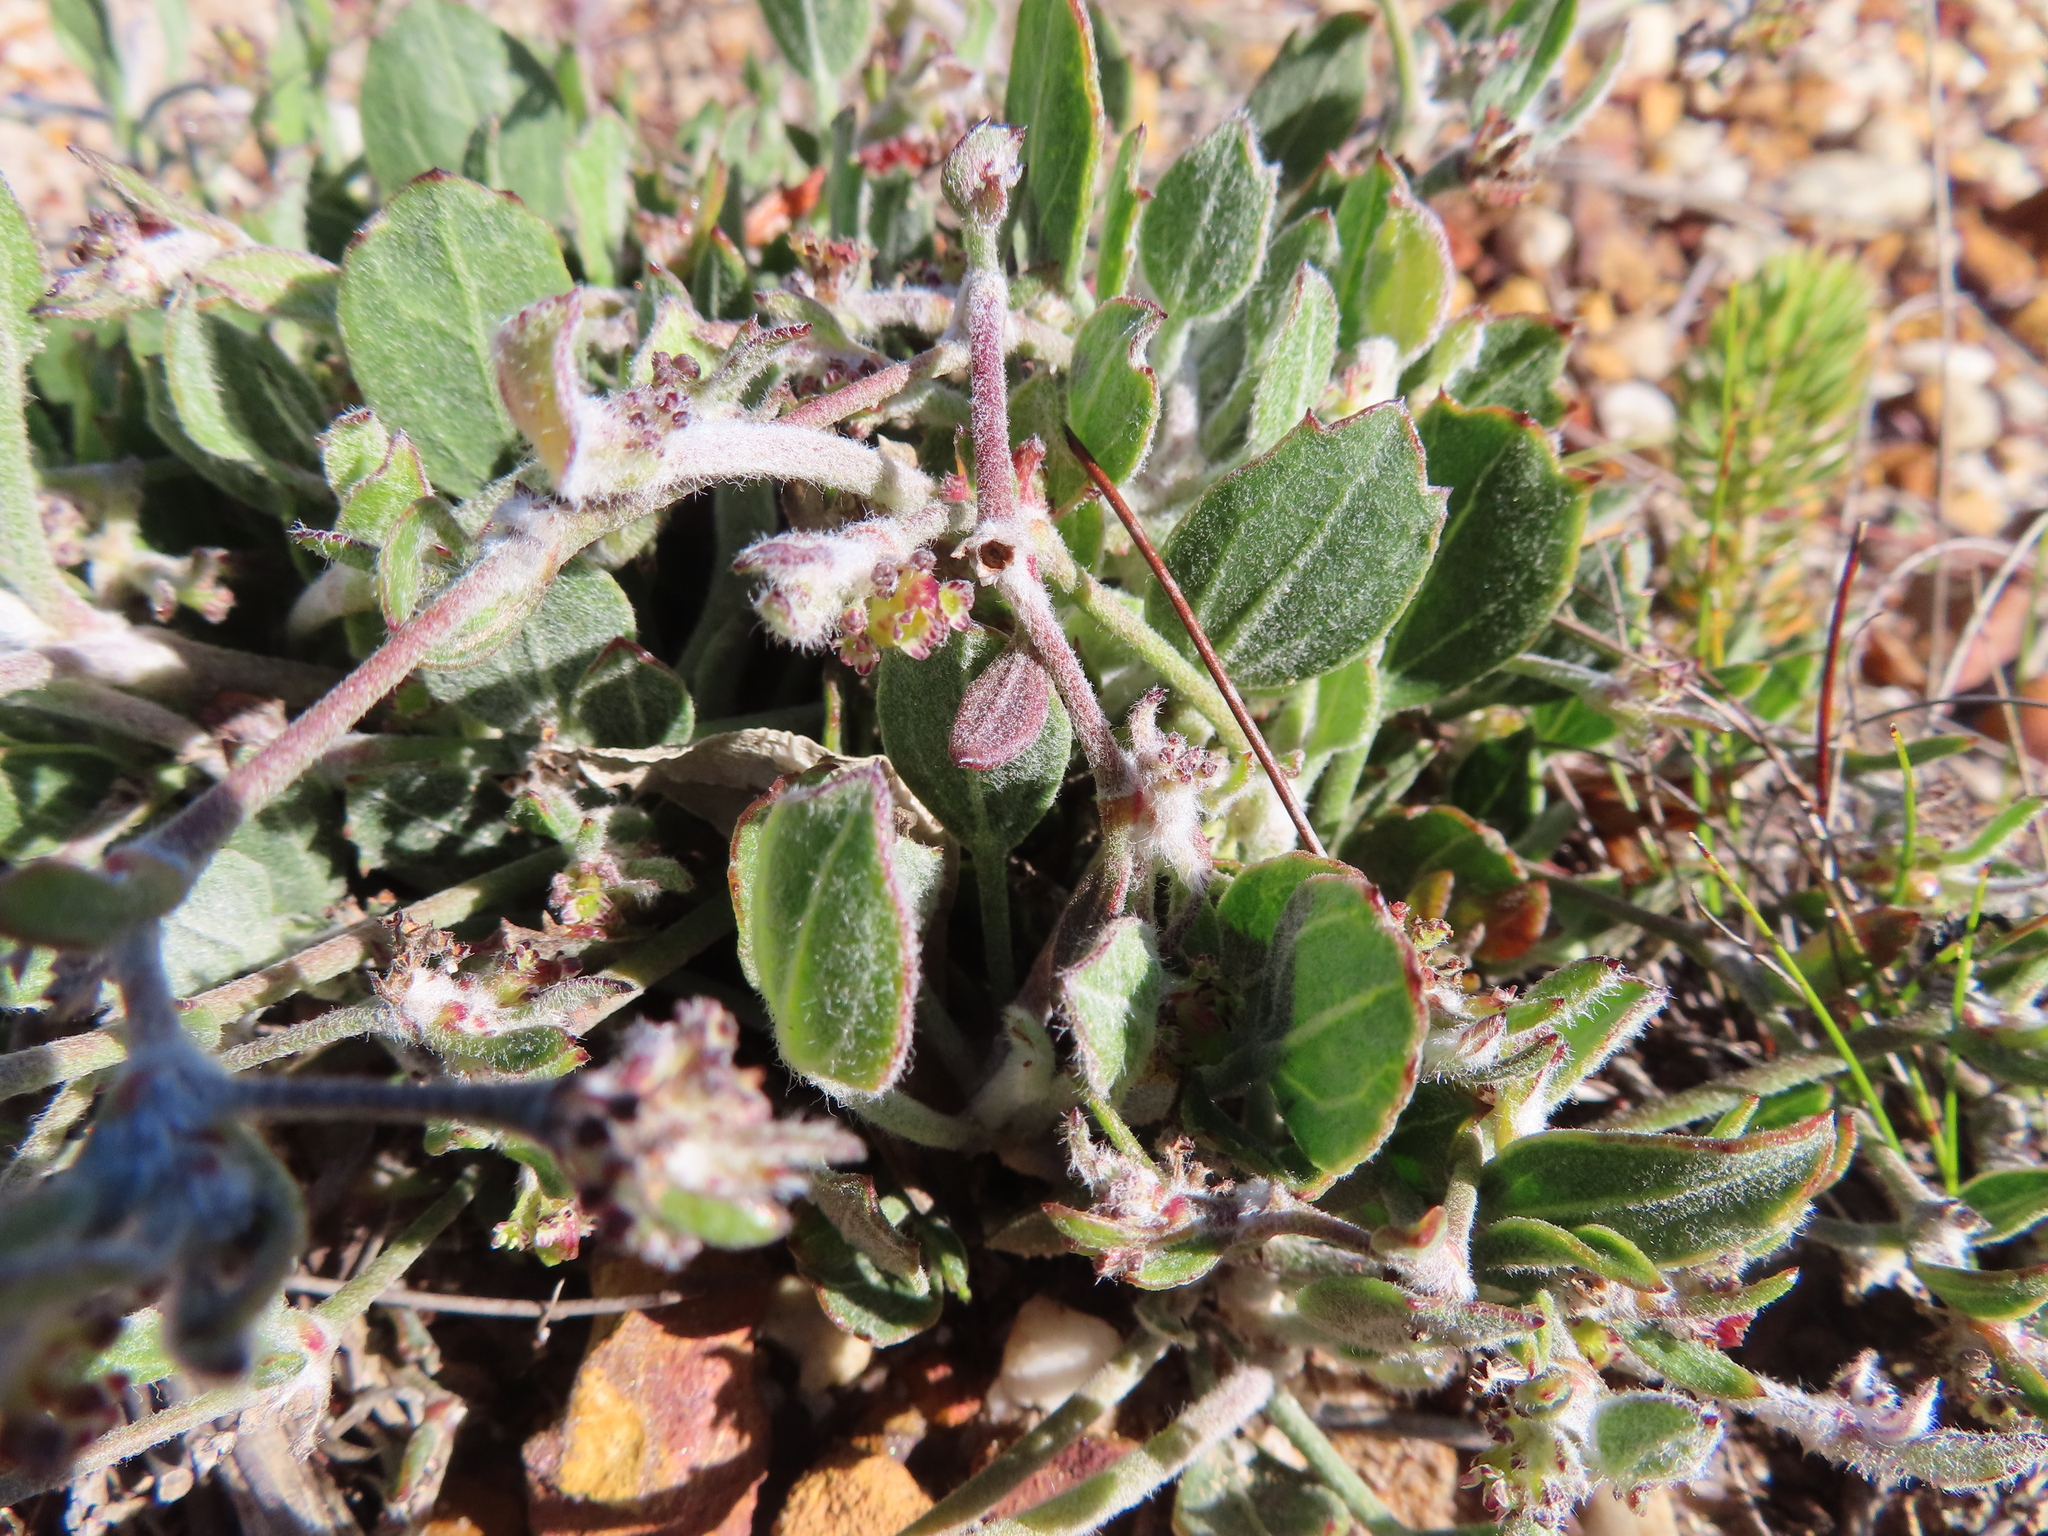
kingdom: Plantae
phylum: Tracheophyta
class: Magnoliopsida
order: Apiales
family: Apiaceae
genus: Centella
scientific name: Centella difformis
